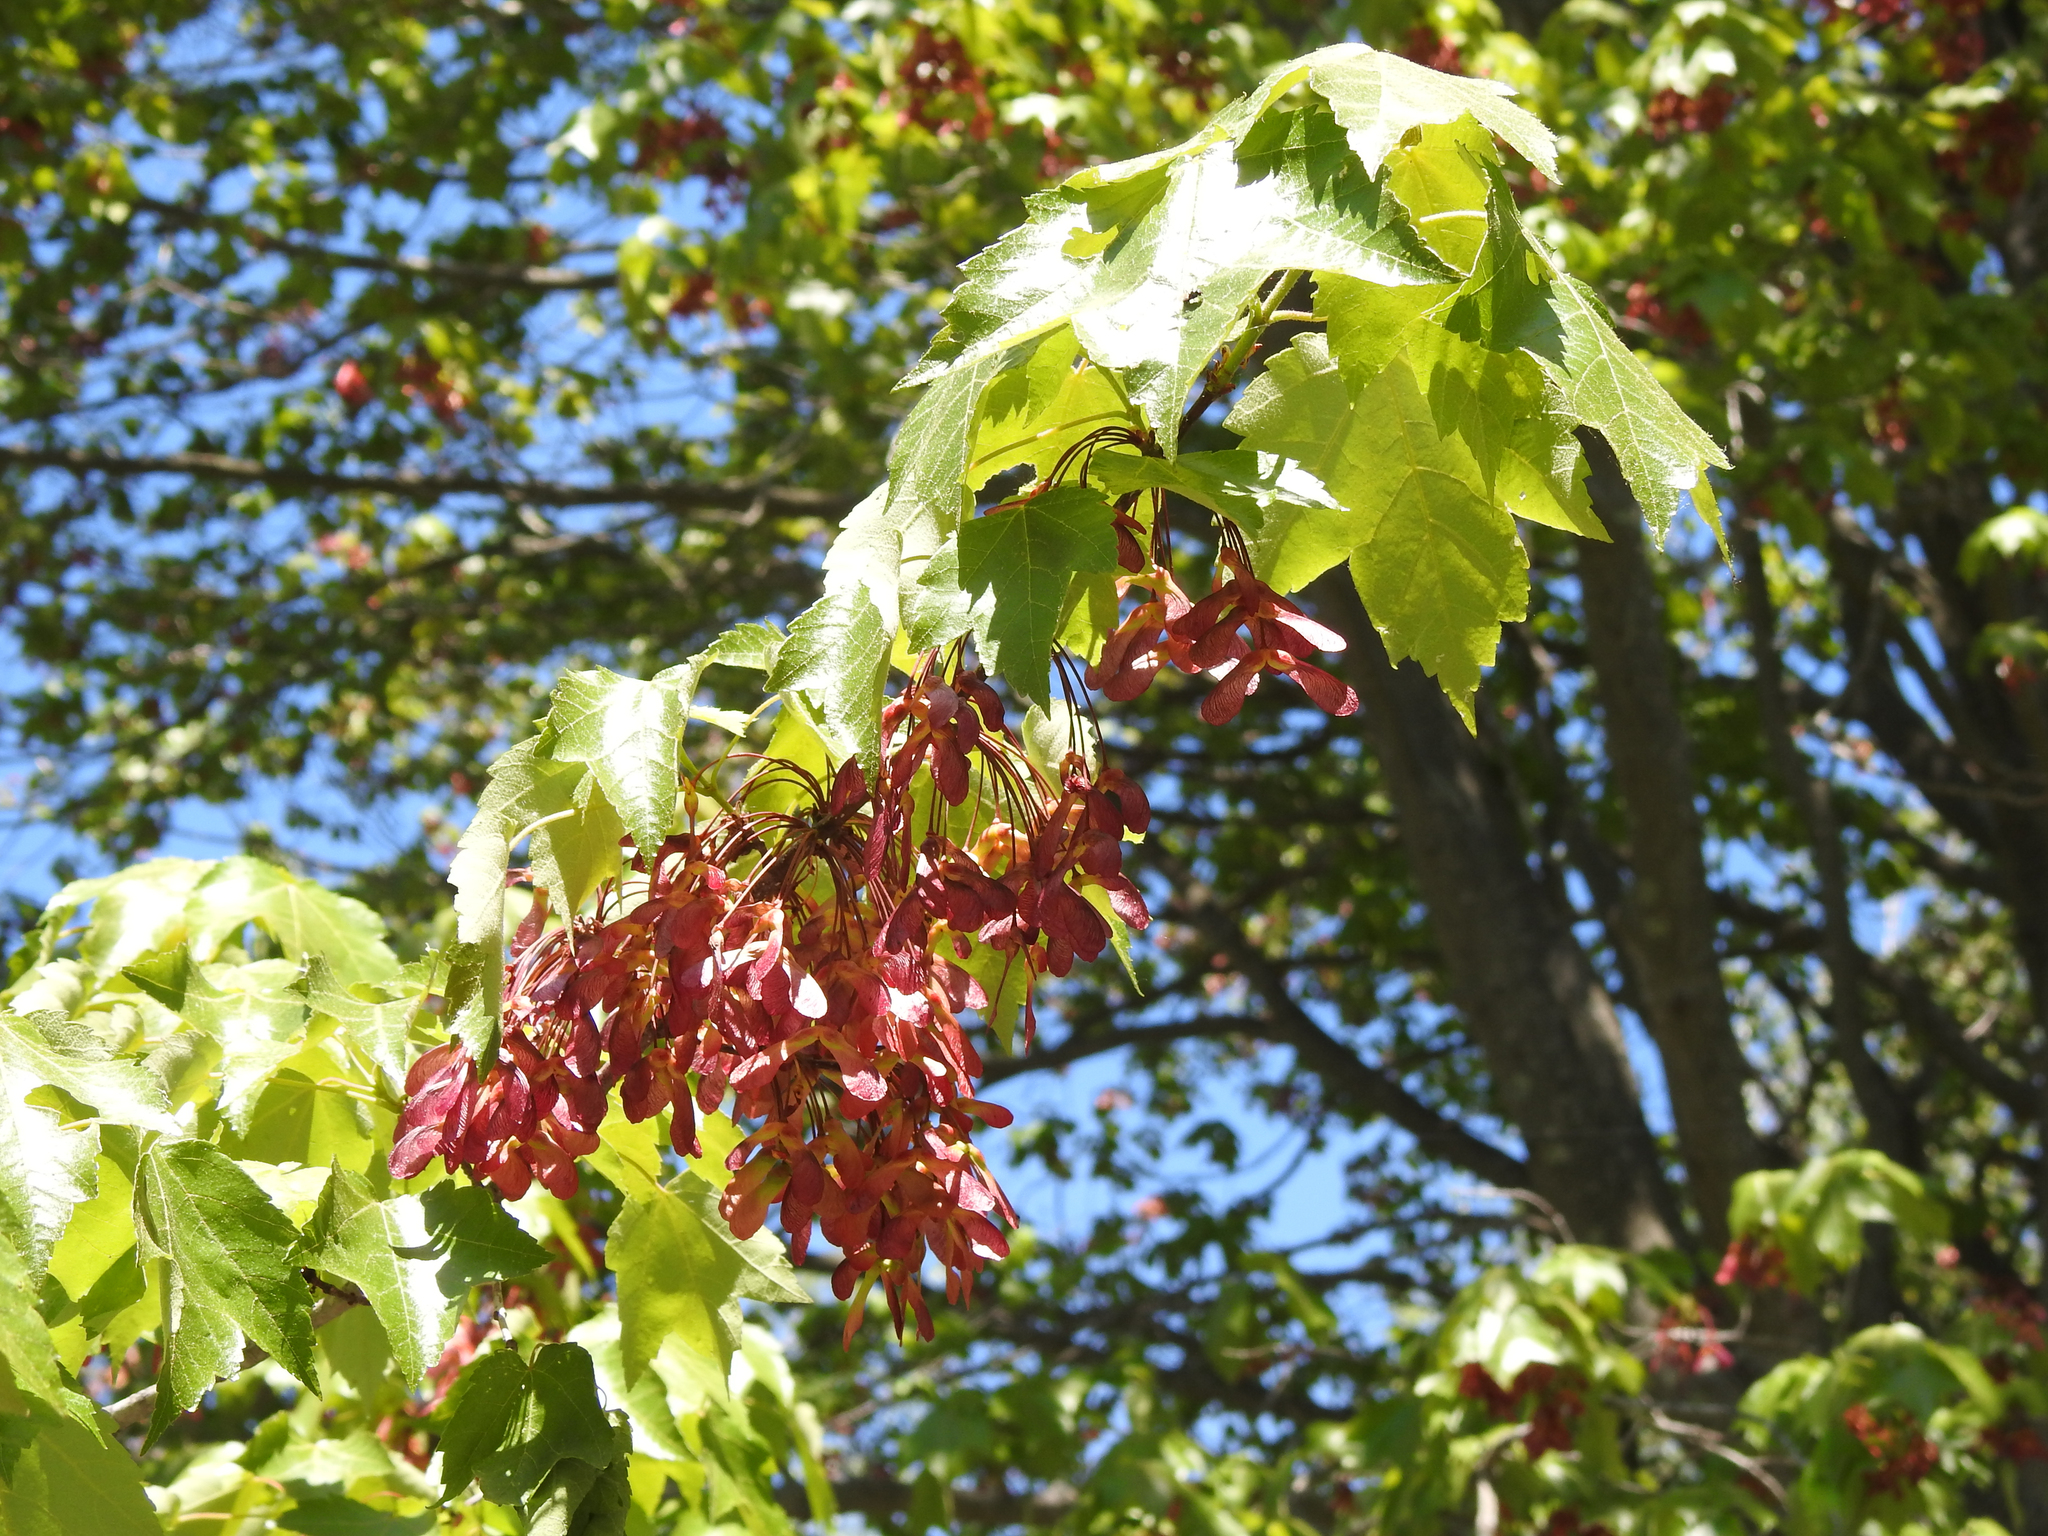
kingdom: Plantae
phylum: Tracheophyta
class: Magnoliopsida
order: Sapindales
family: Sapindaceae
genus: Acer
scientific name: Acer rubrum
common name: Red maple
